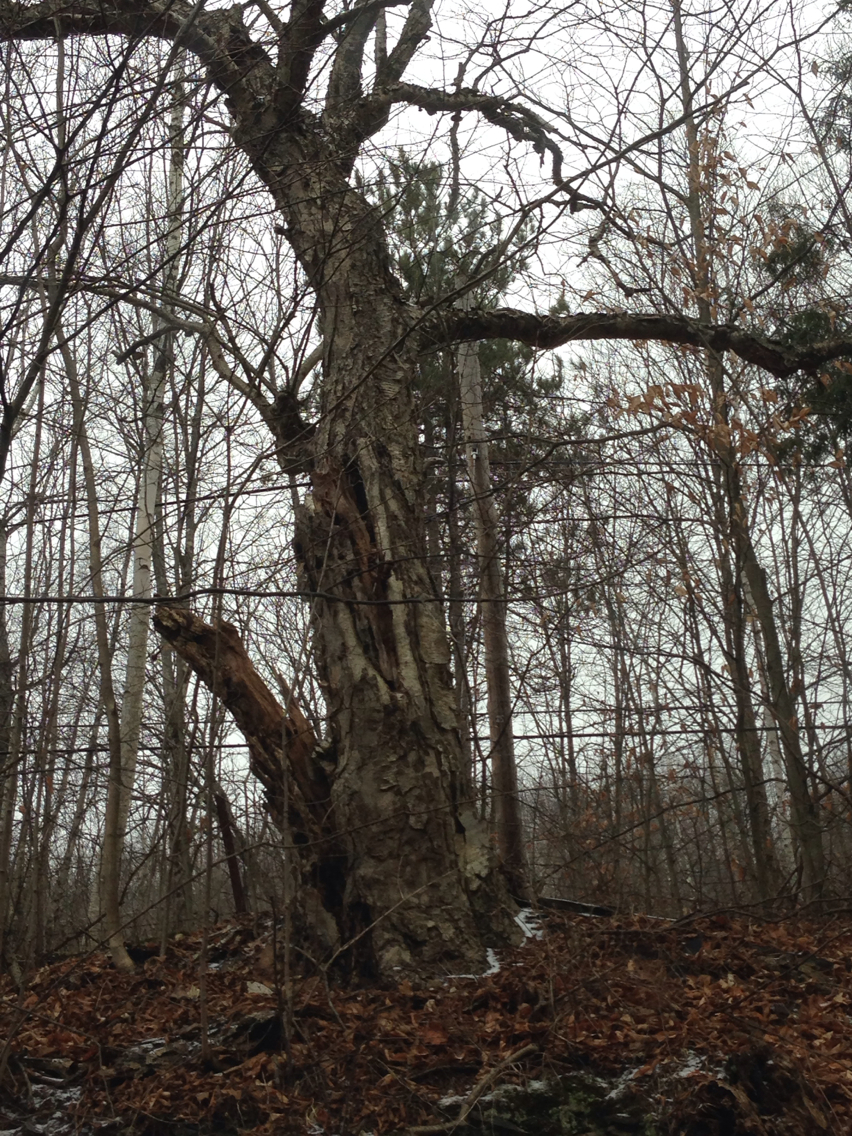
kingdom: Plantae
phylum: Tracheophyta
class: Magnoliopsida
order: Fagales
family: Betulaceae
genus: Betula
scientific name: Betula alleghaniensis
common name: Yellow birch
